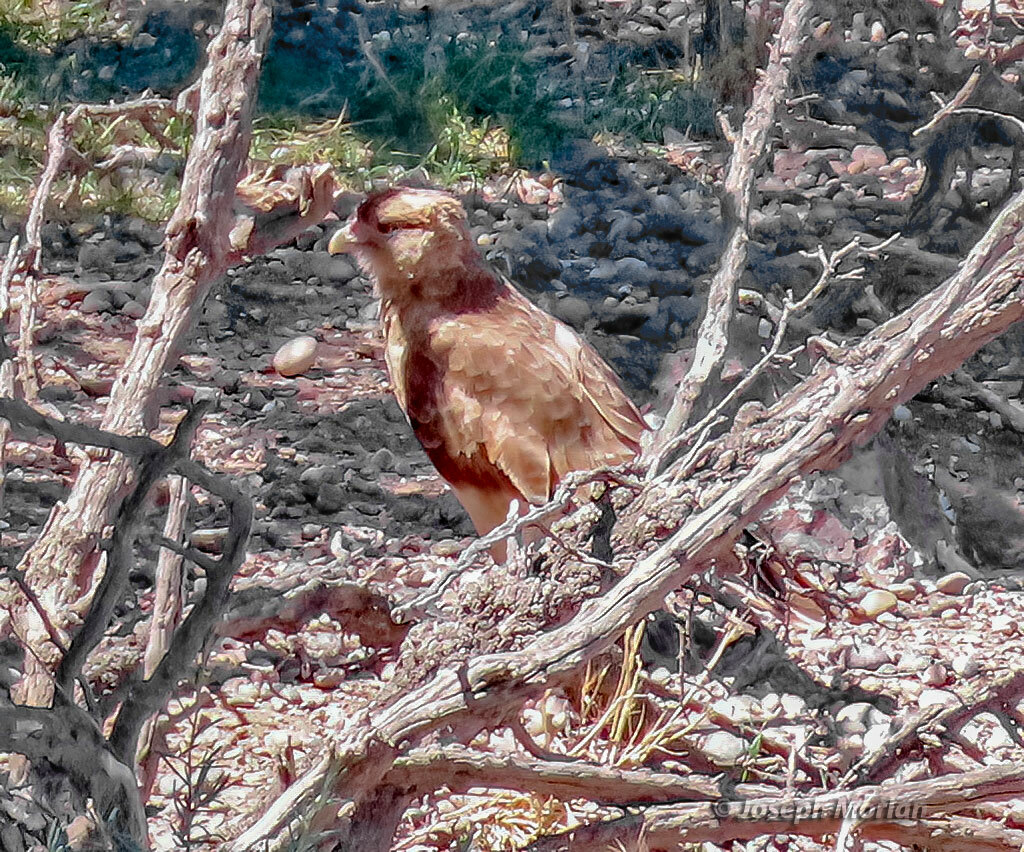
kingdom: Animalia
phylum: Chordata
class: Aves
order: Falconiformes
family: Falconidae
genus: Daptrius
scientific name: Daptrius
